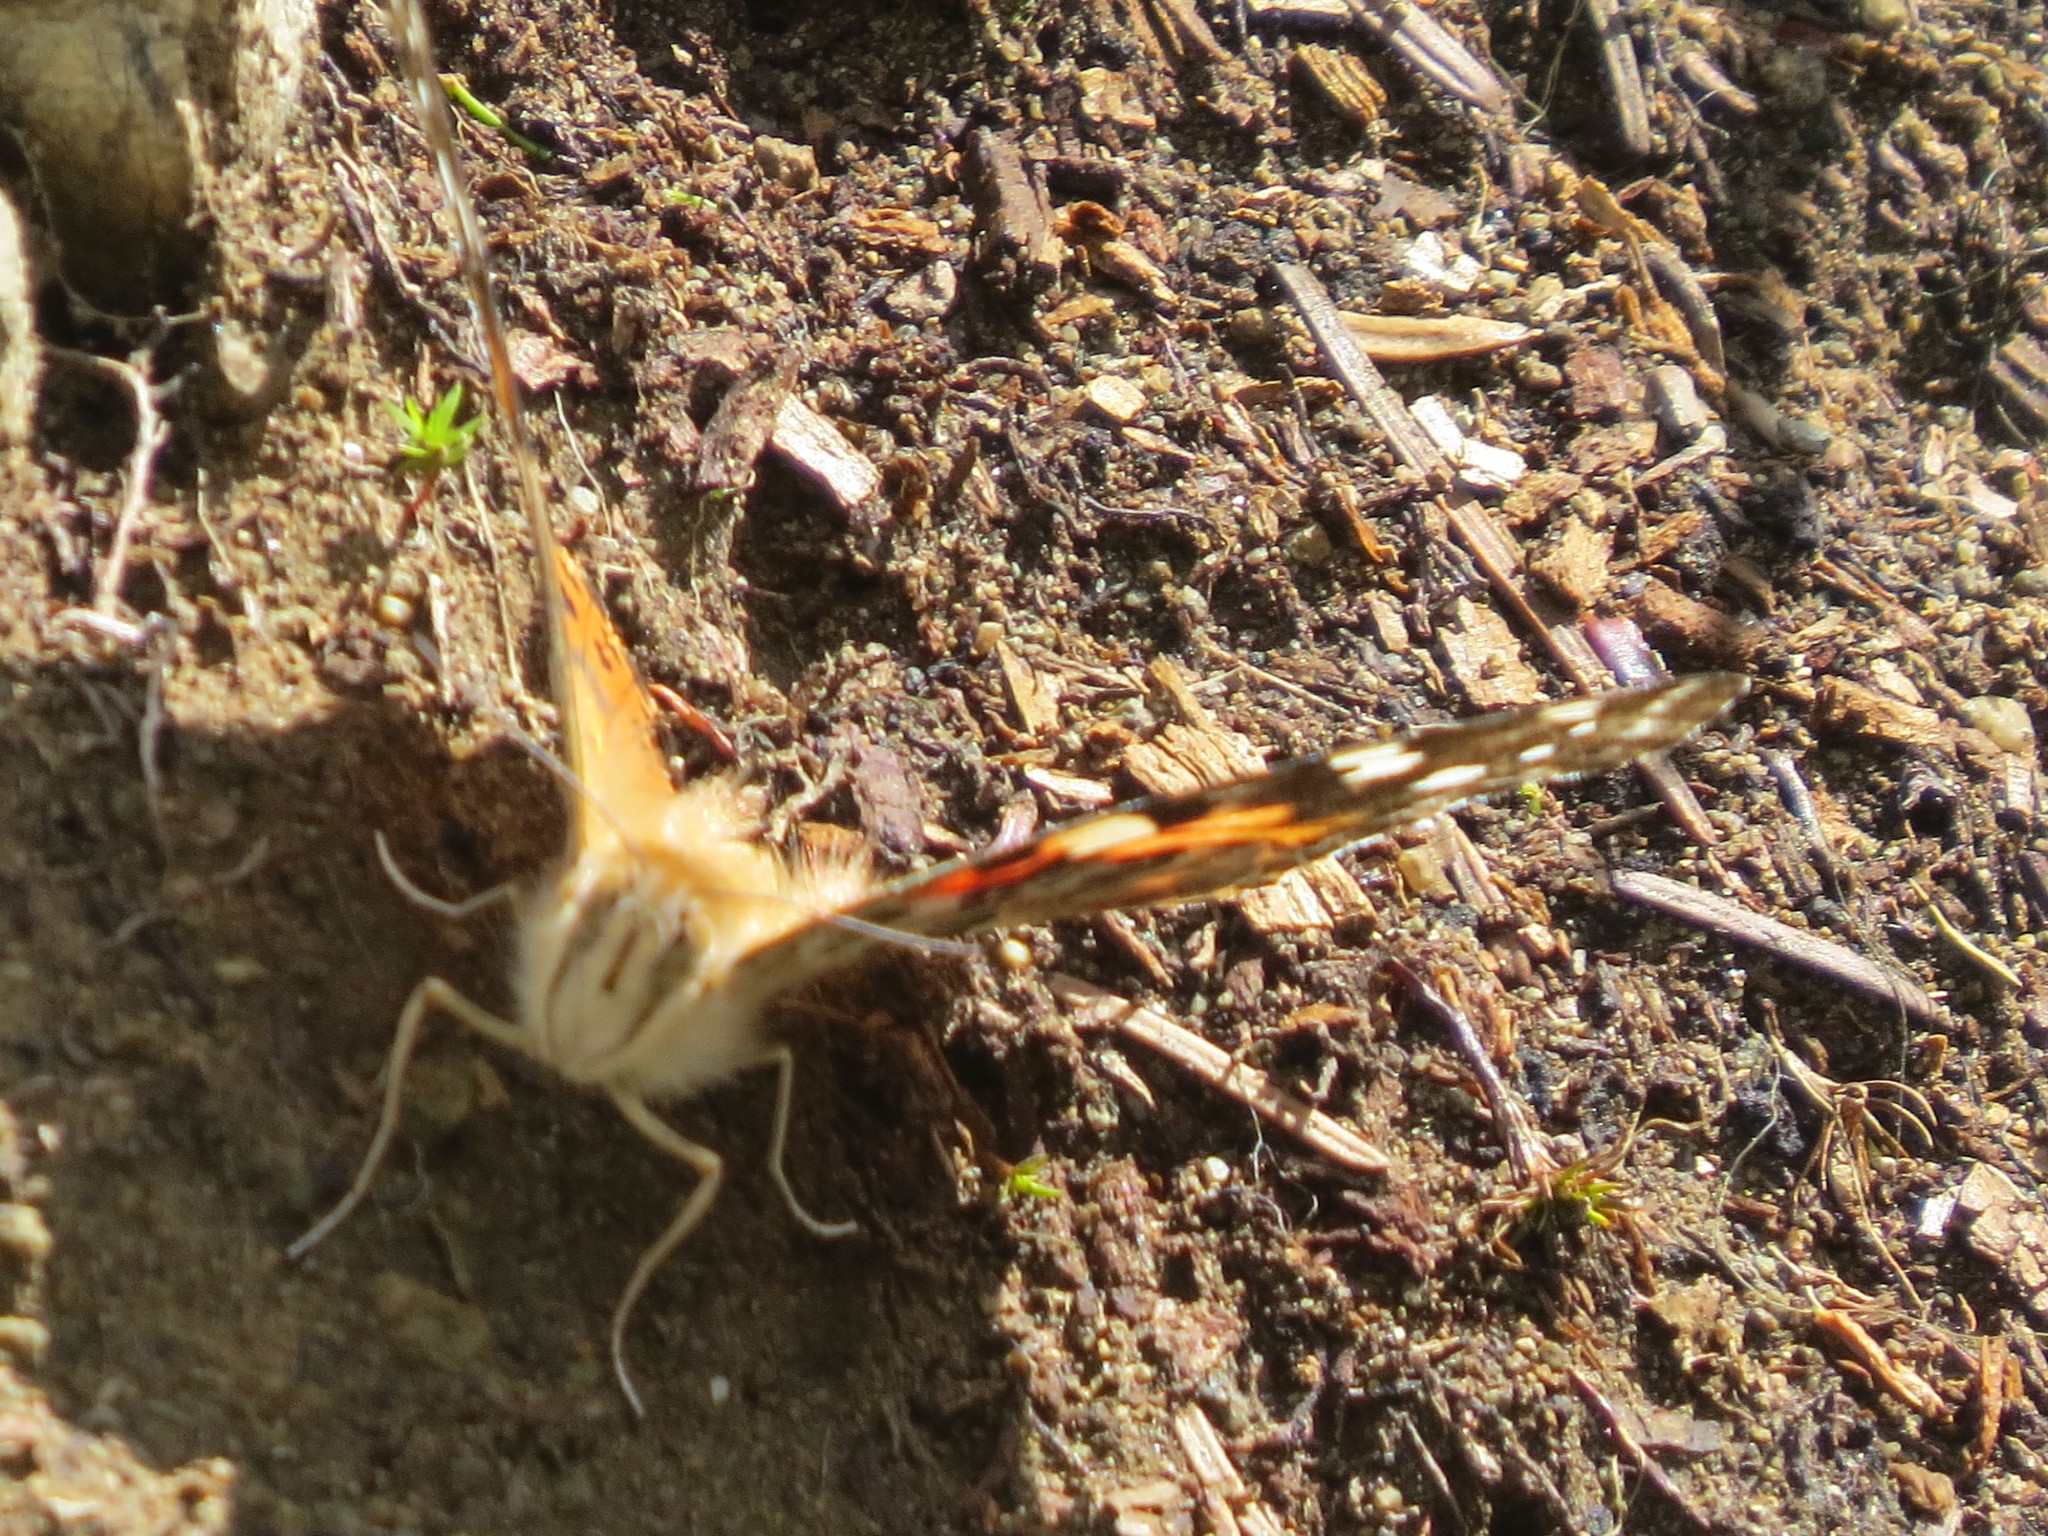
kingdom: Animalia
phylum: Arthropoda
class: Insecta
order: Lepidoptera
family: Nymphalidae
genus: Vanessa
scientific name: Vanessa cardui
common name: Painted lady
